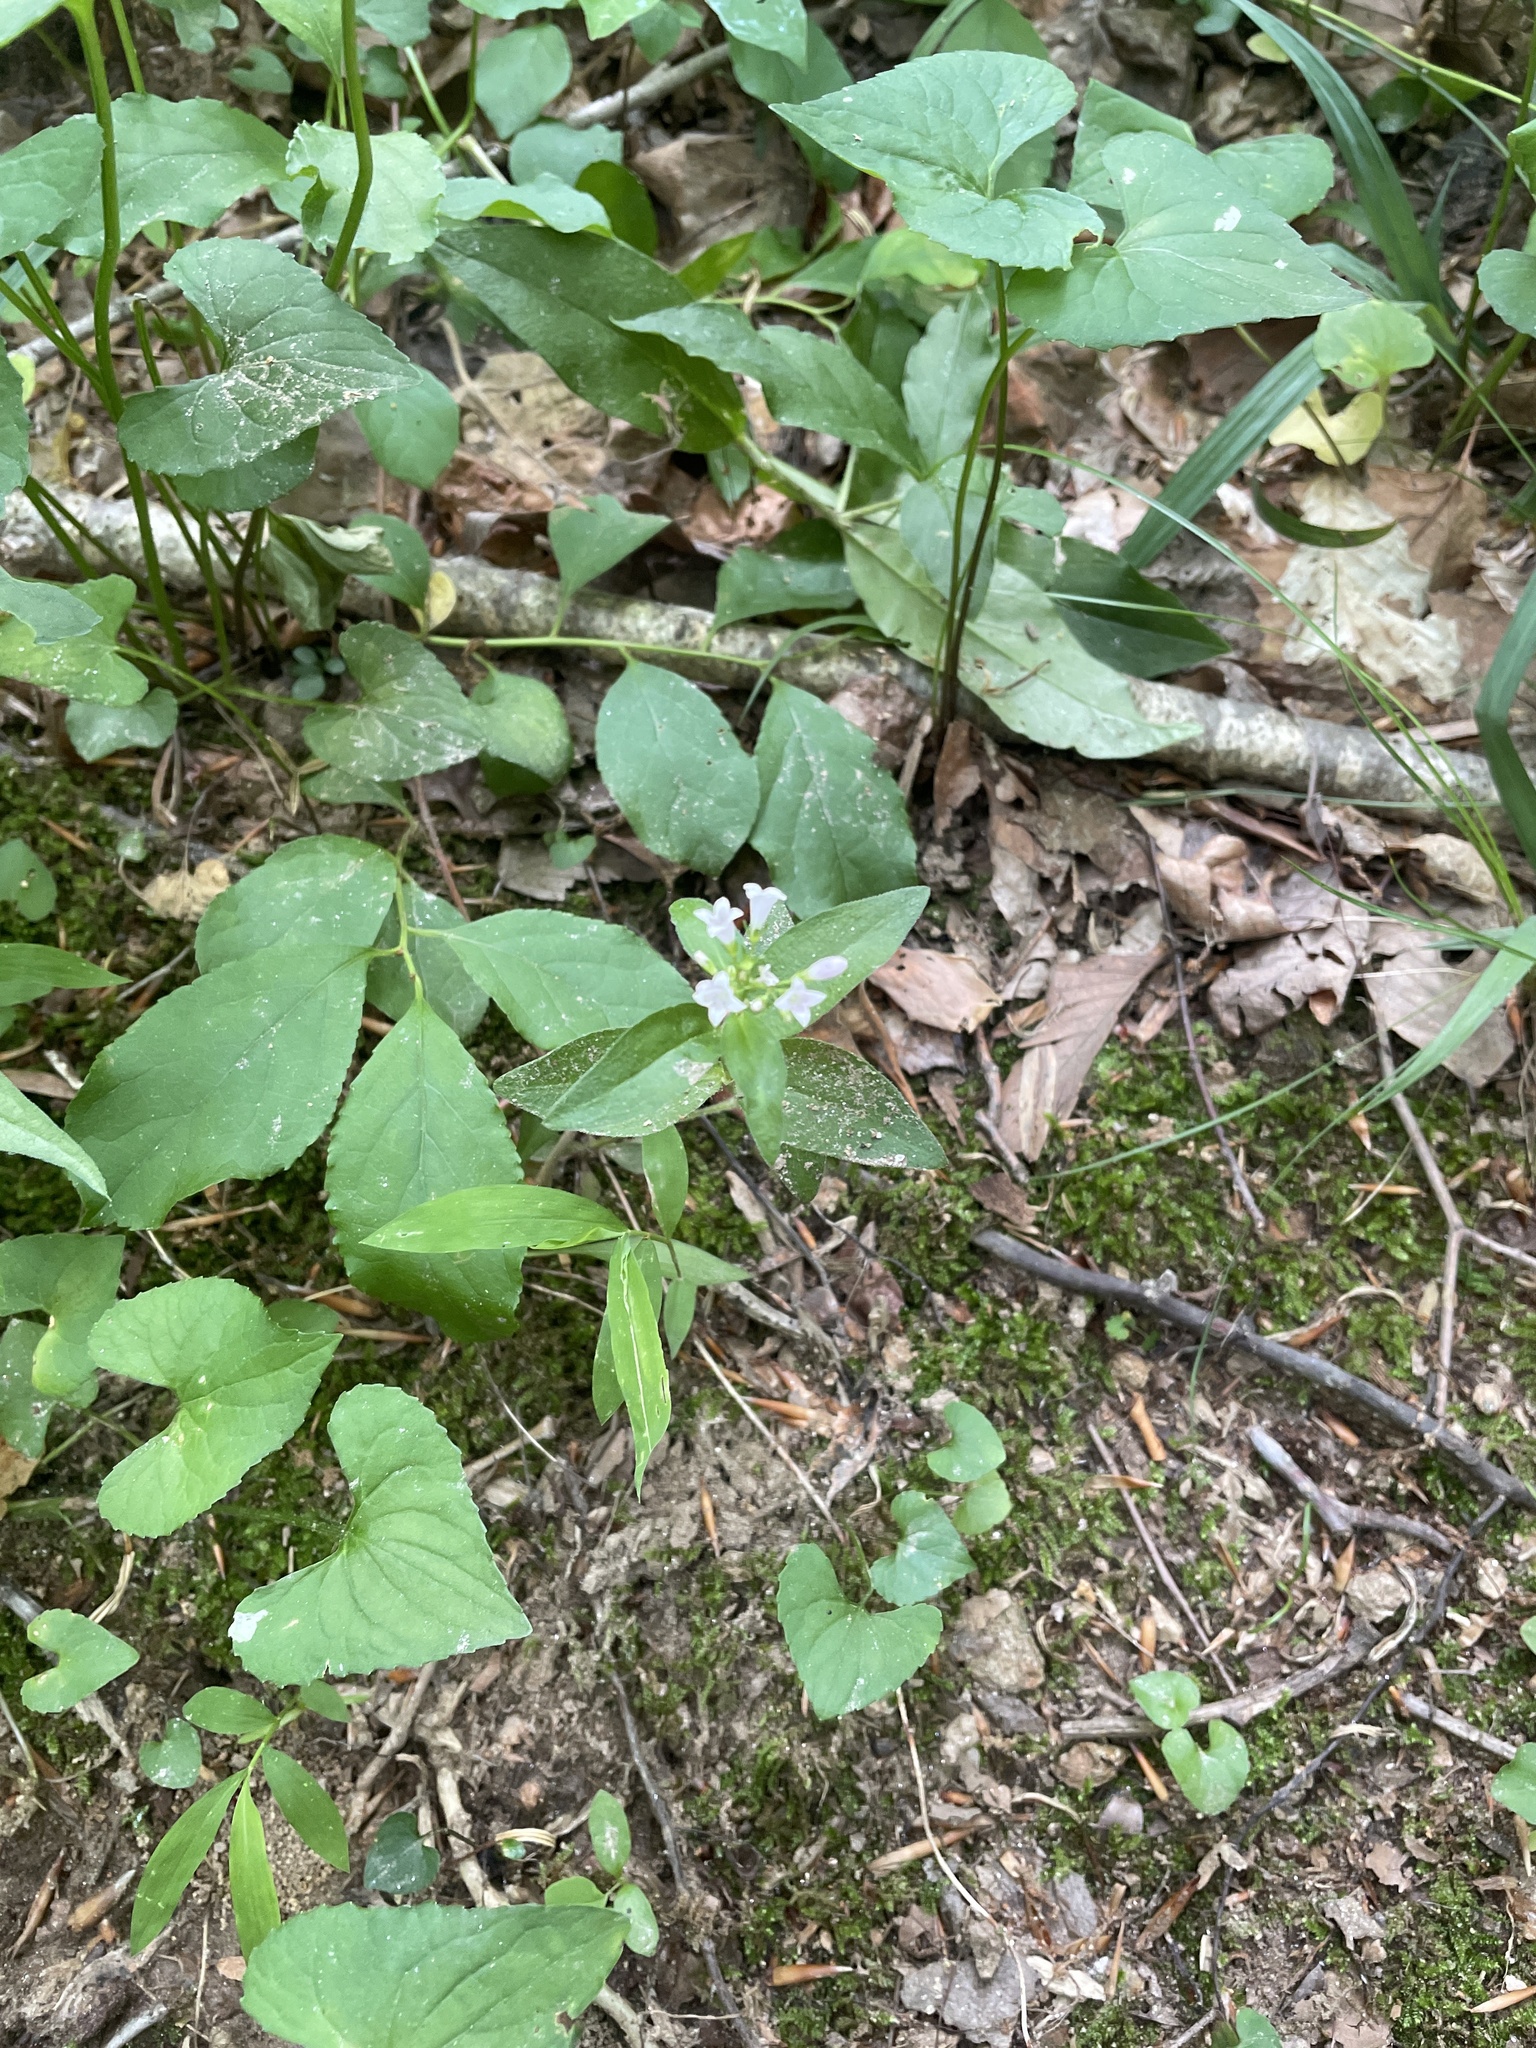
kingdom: Plantae
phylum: Tracheophyta
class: Magnoliopsida
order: Gentianales
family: Rubiaceae
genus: Houstonia
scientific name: Houstonia purpurea
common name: Summer bluet
